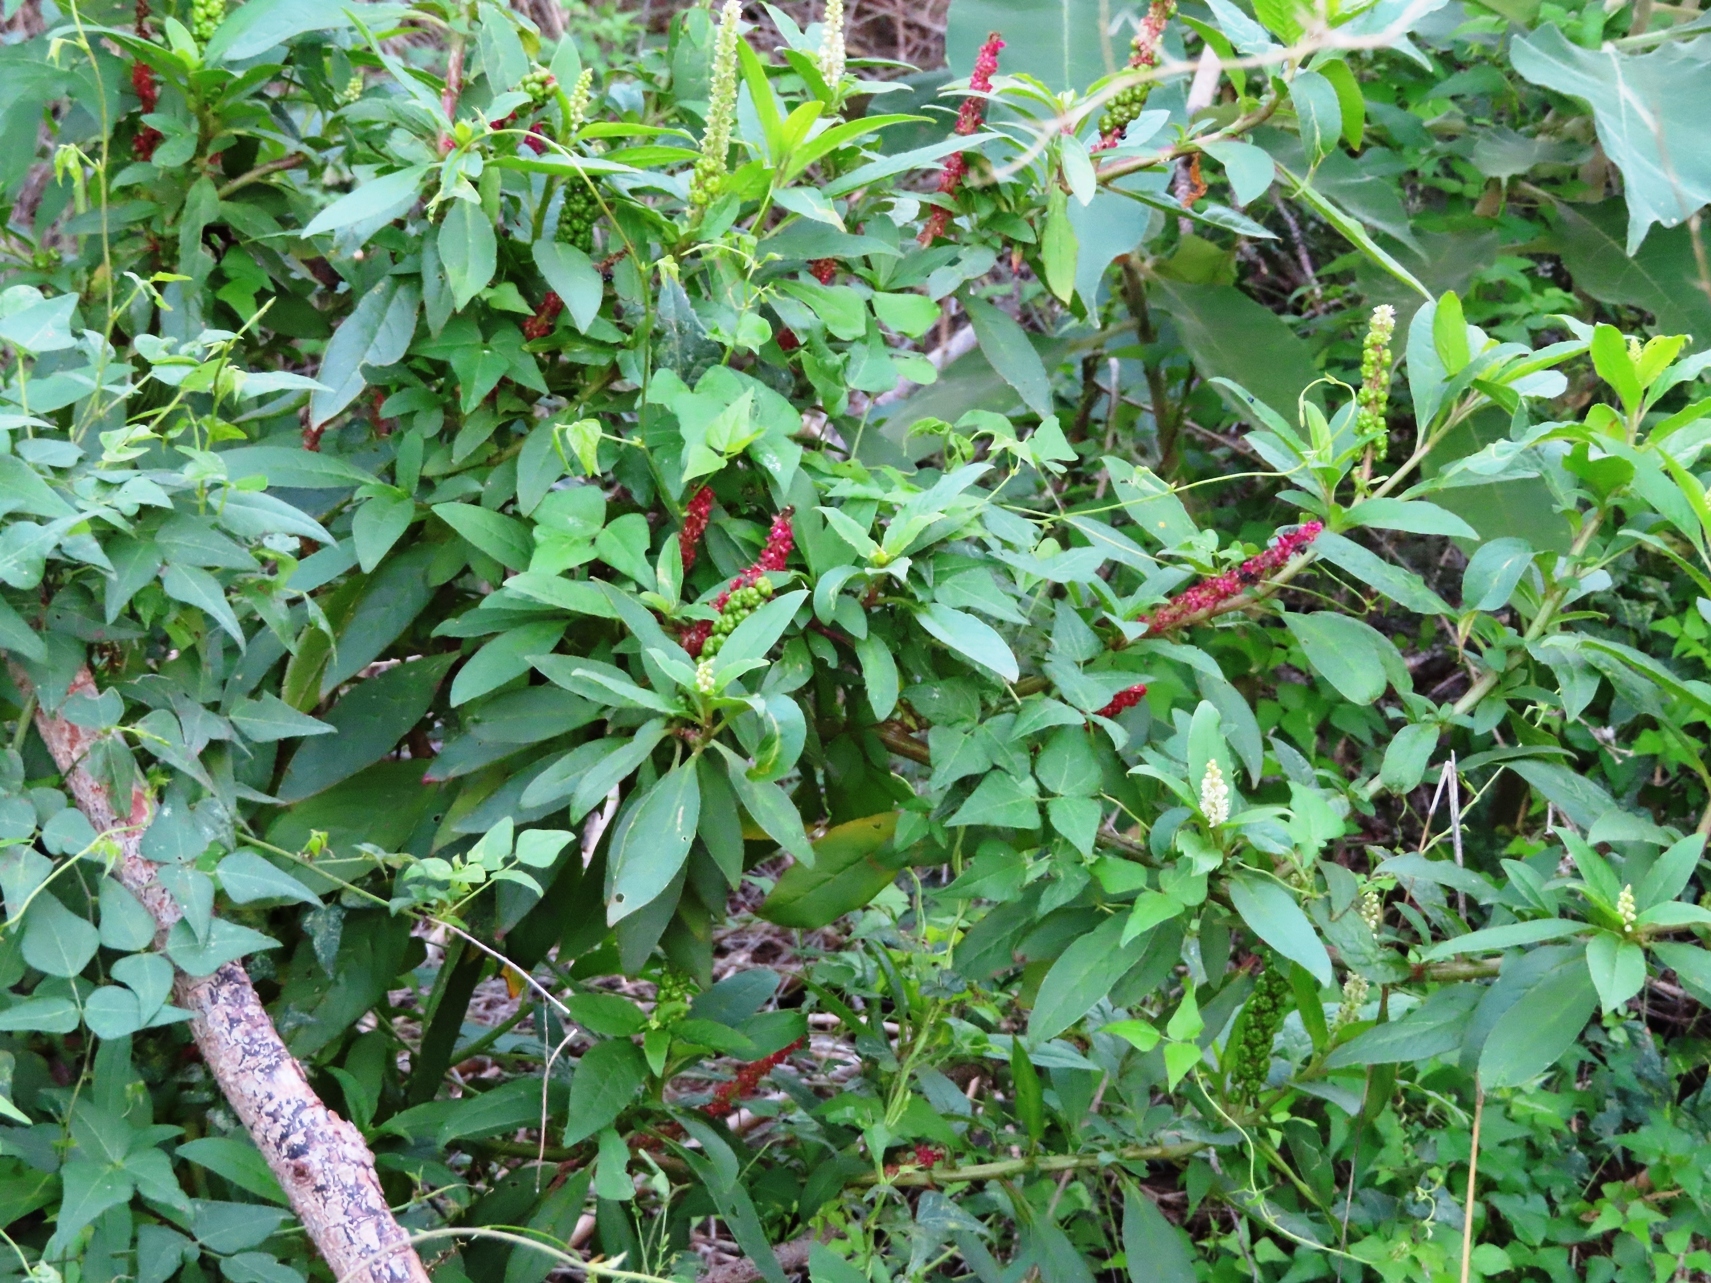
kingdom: Plantae
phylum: Tracheophyta
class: Magnoliopsida
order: Caryophyllales
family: Phytolaccaceae
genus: Phytolacca
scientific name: Phytolacca icosandra
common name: Button pokeweed
